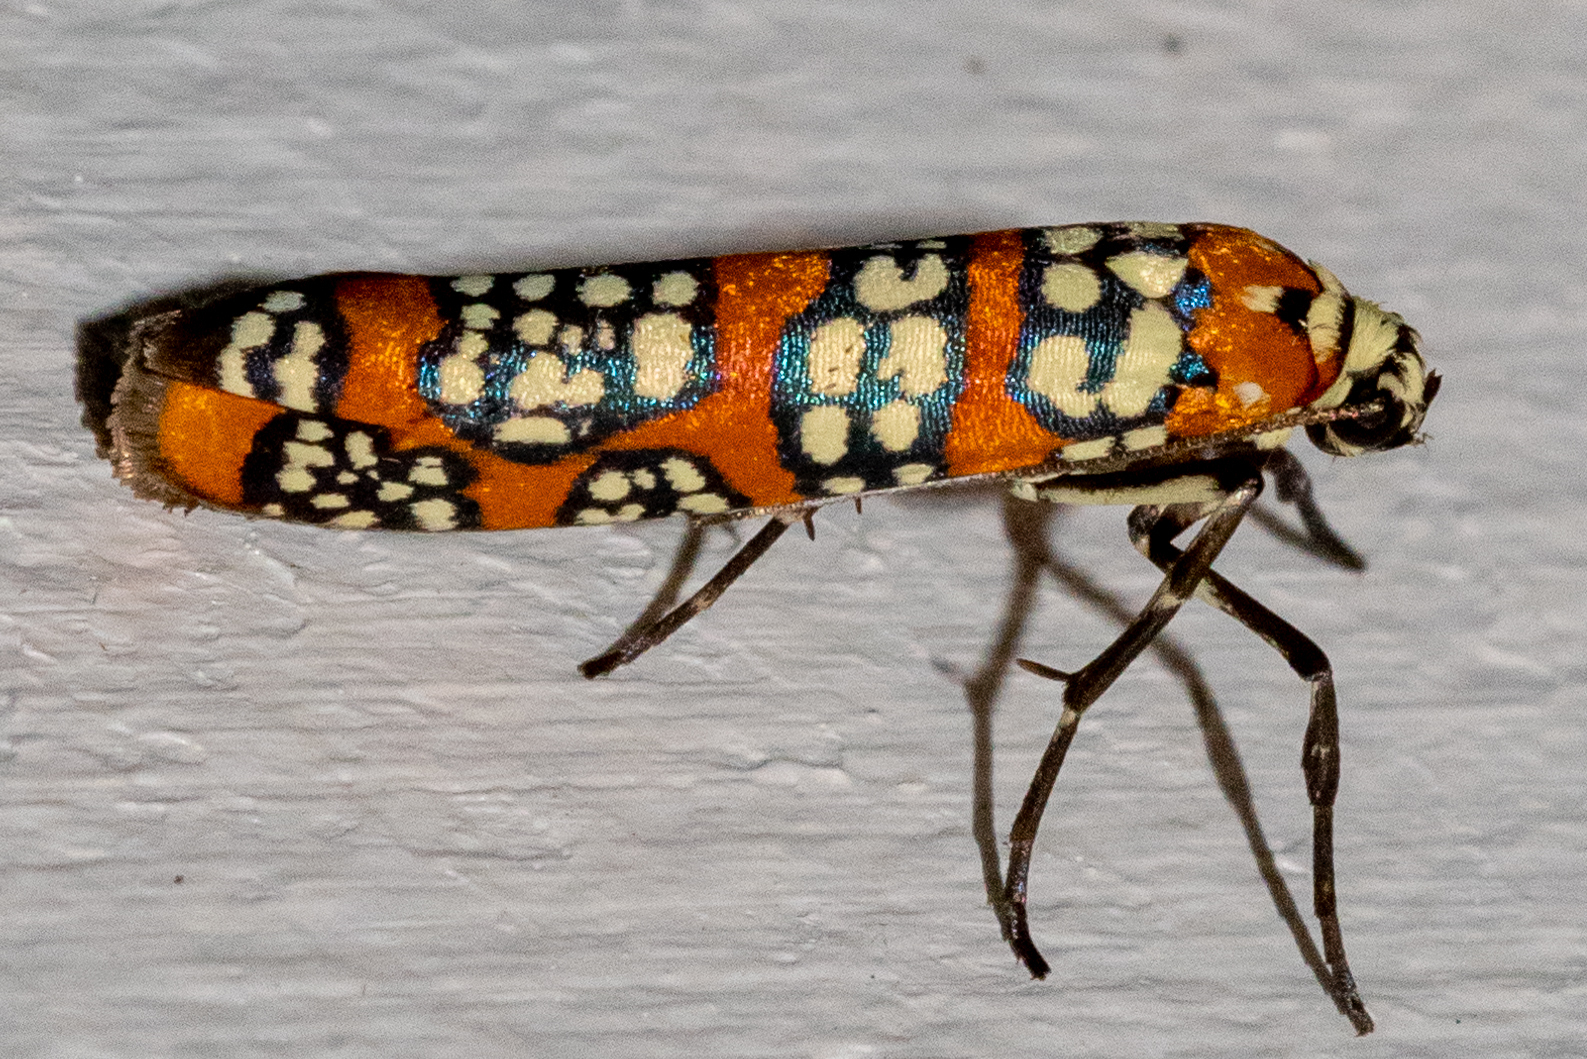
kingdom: Animalia
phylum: Arthropoda
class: Insecta
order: Lepidoptera
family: Attevidae
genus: Atteva
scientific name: Atteva punctella
